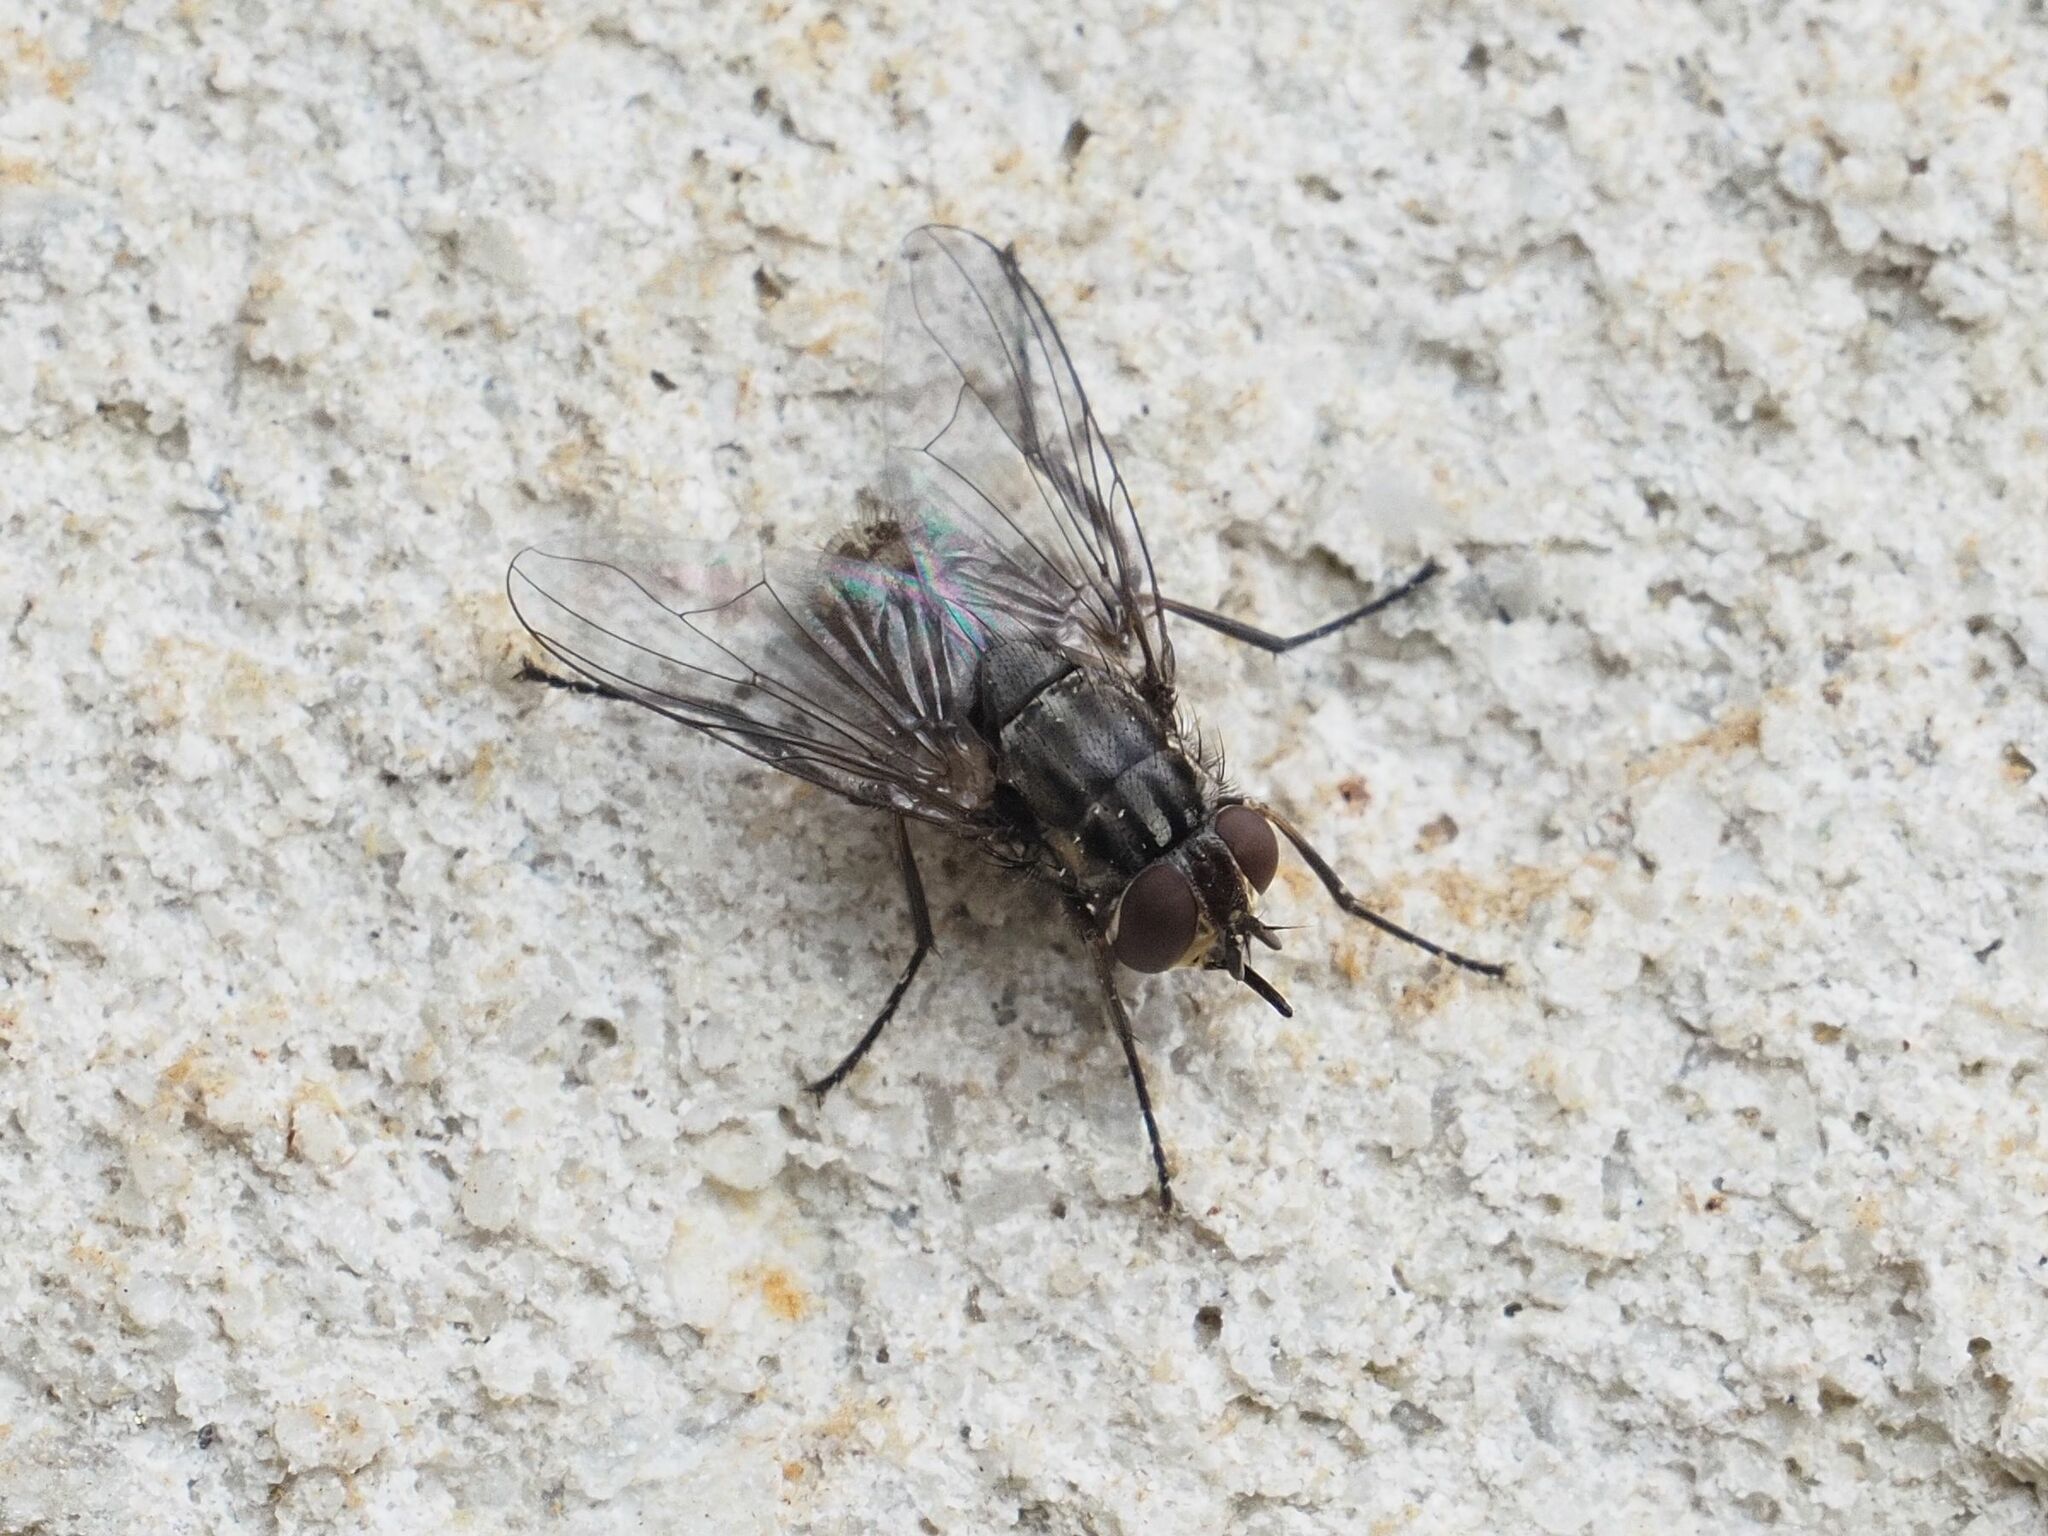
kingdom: Animalia
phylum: Arthropoda
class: Insecta
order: Diptera
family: Muscidae
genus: Stomoxys
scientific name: Stomoxys calcitrans
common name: Stable fly
